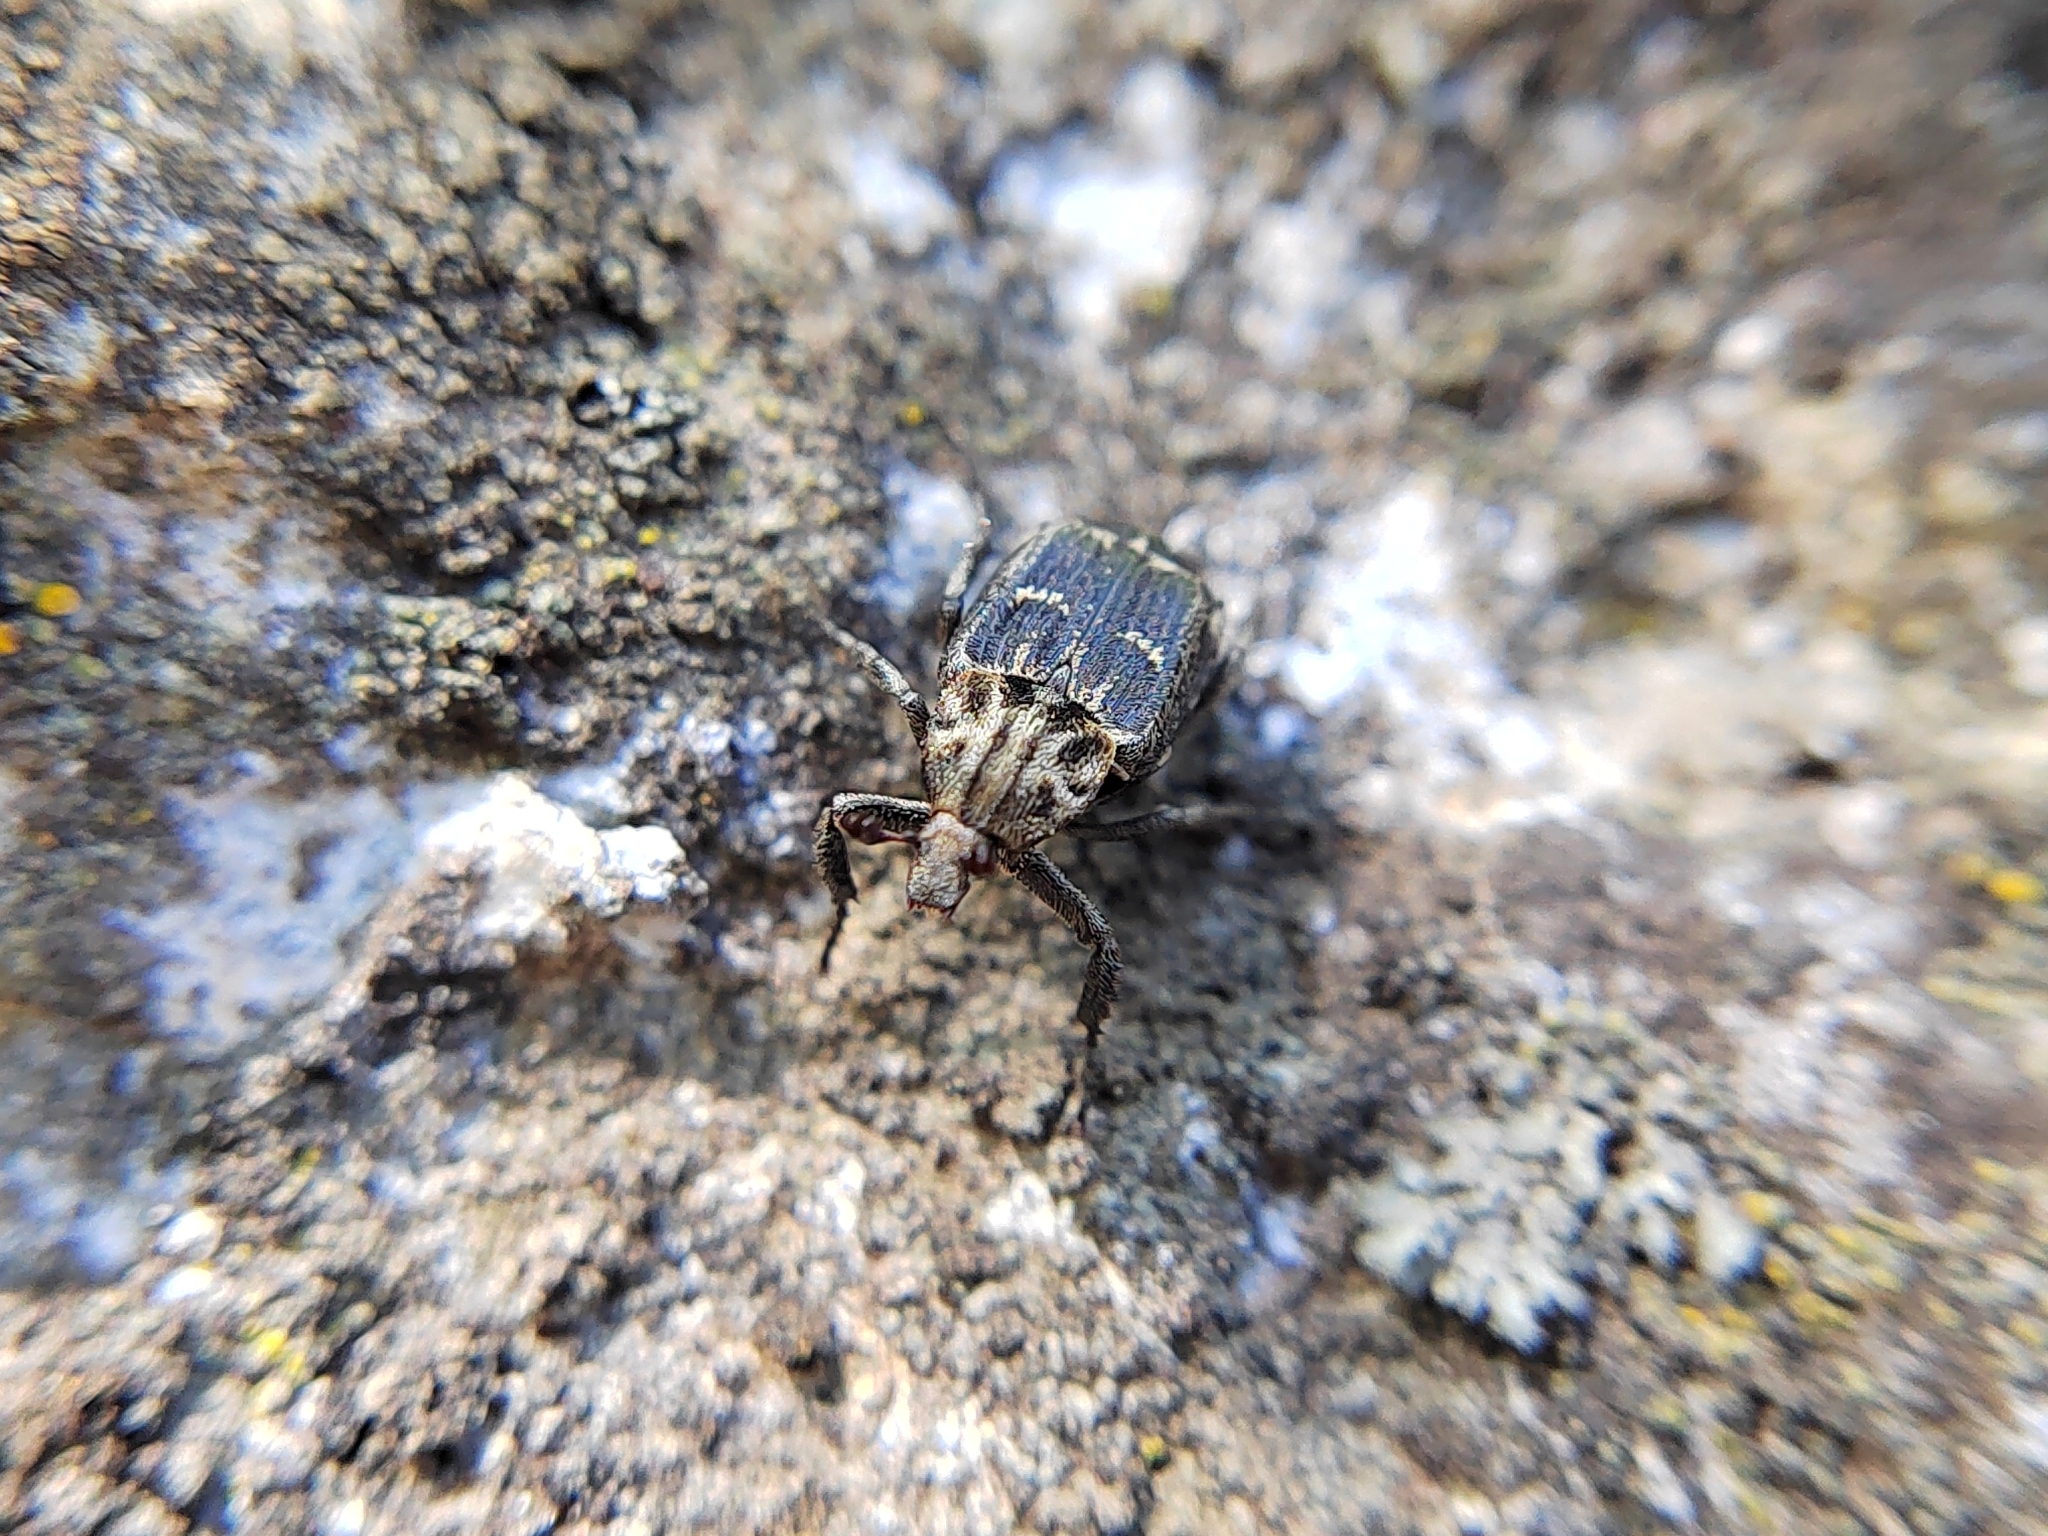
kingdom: Animalia
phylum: Arthropoda
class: Insecta
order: Coleoptera
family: Scarabaeidae
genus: Valgus
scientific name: Valgus hemipterus
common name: Bug flower chafer
